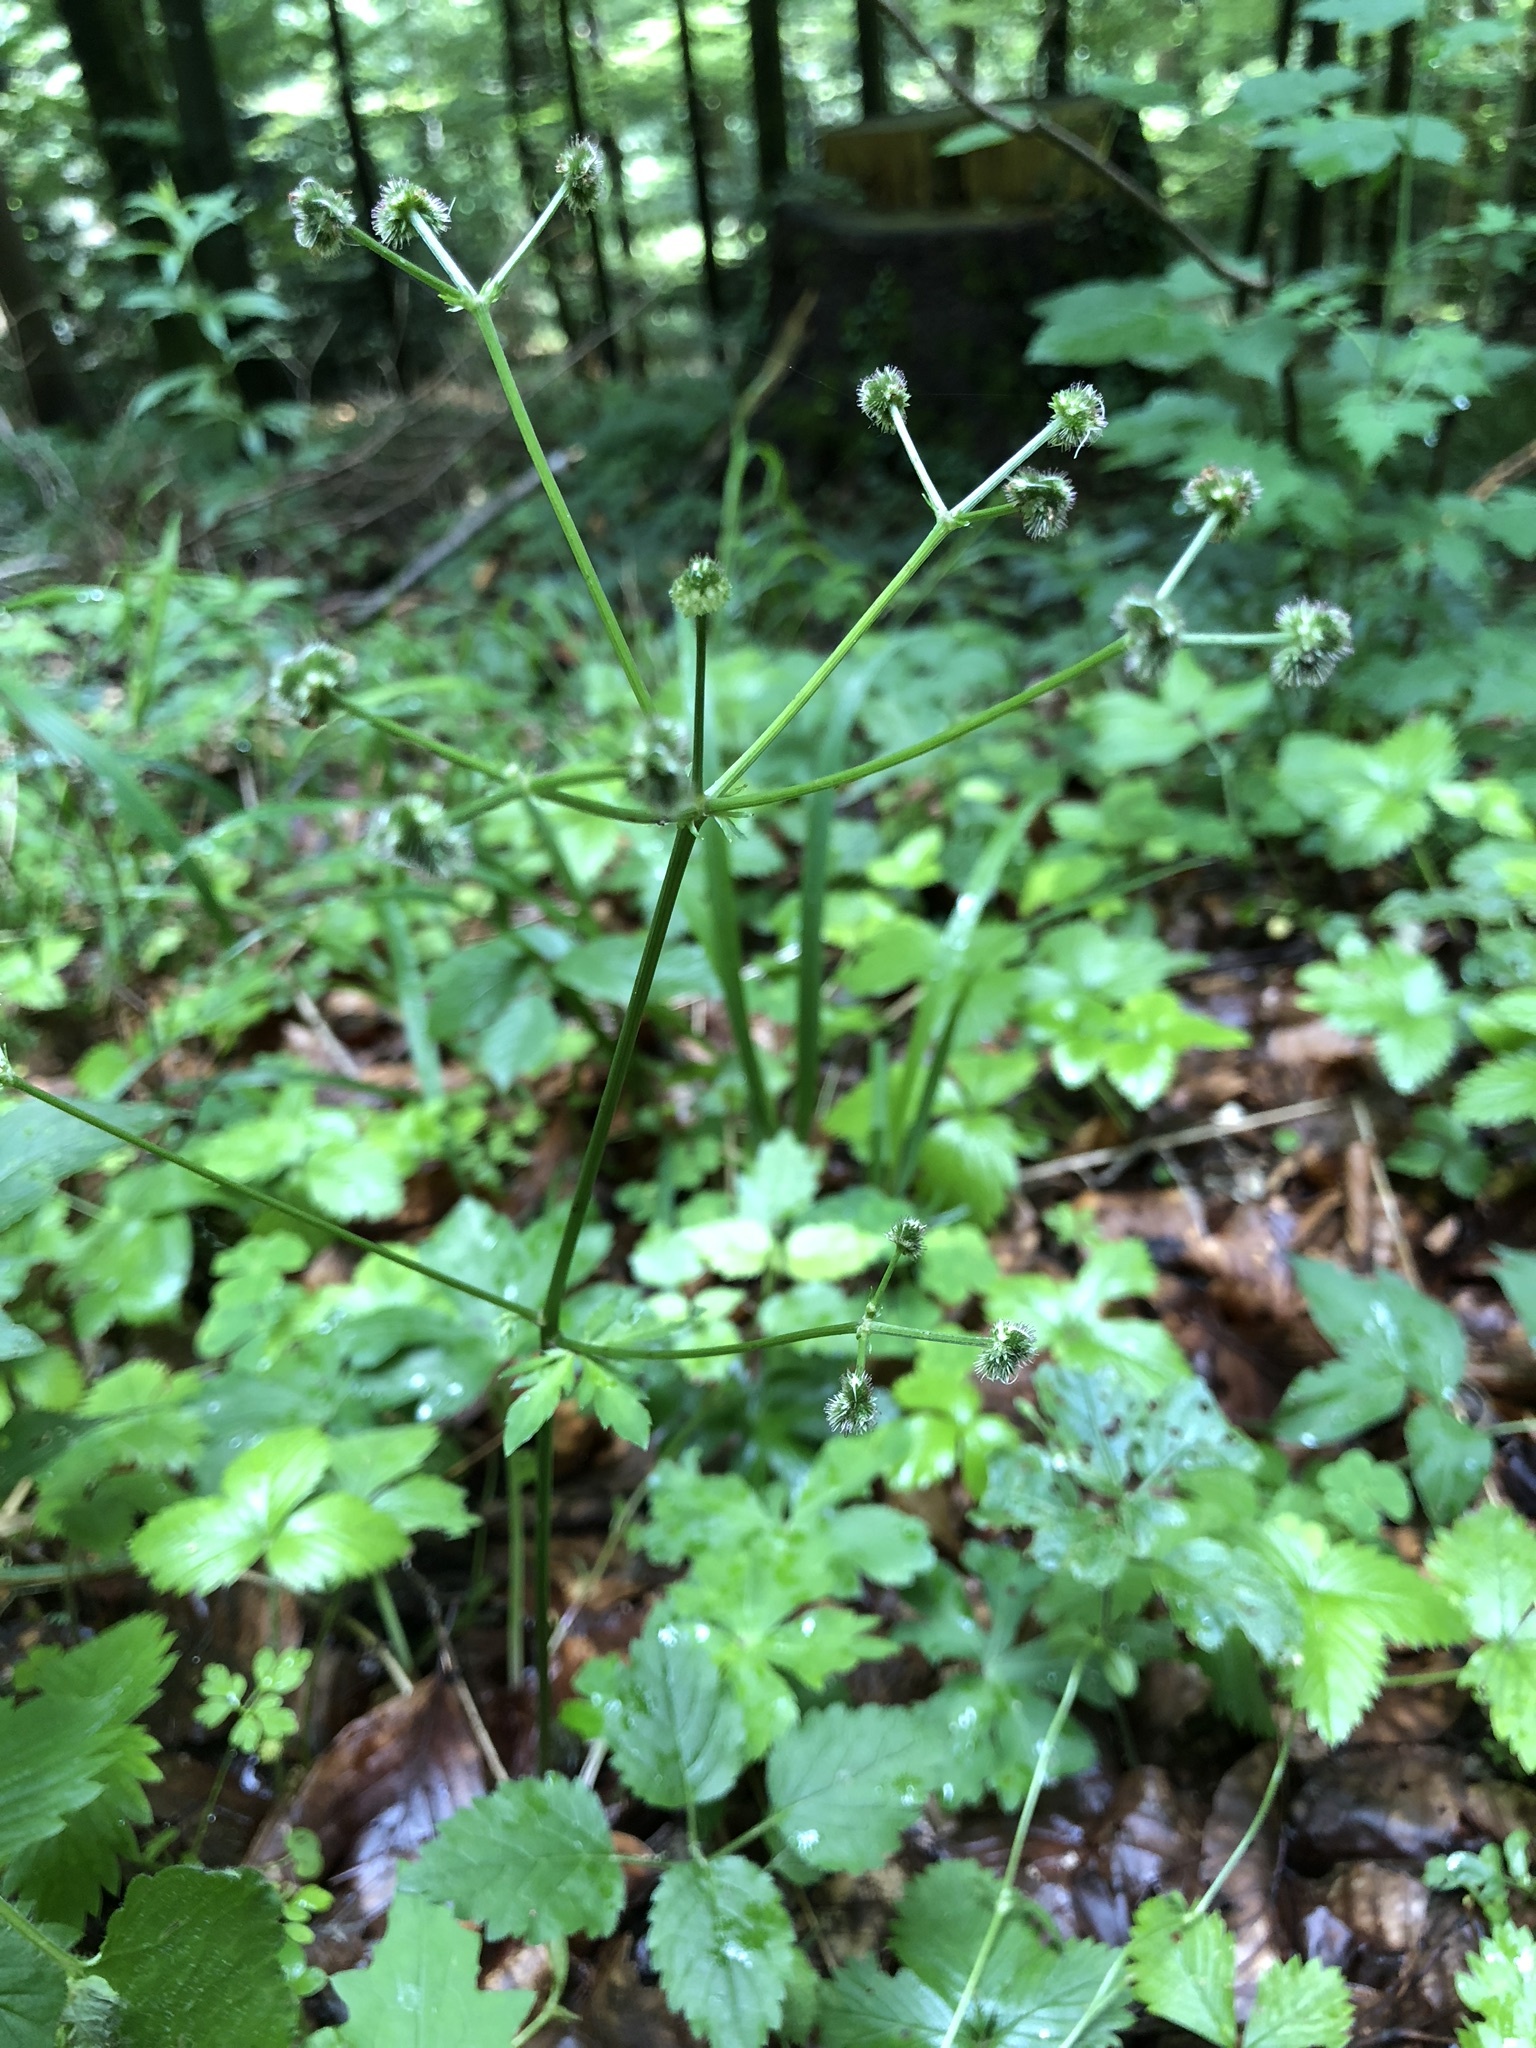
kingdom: Plantae
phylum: Tracheophyta
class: Magnoliopsida
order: Apiales
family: Apiaceae
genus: Sanicula
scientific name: Sanicula europaea
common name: Sanicle
